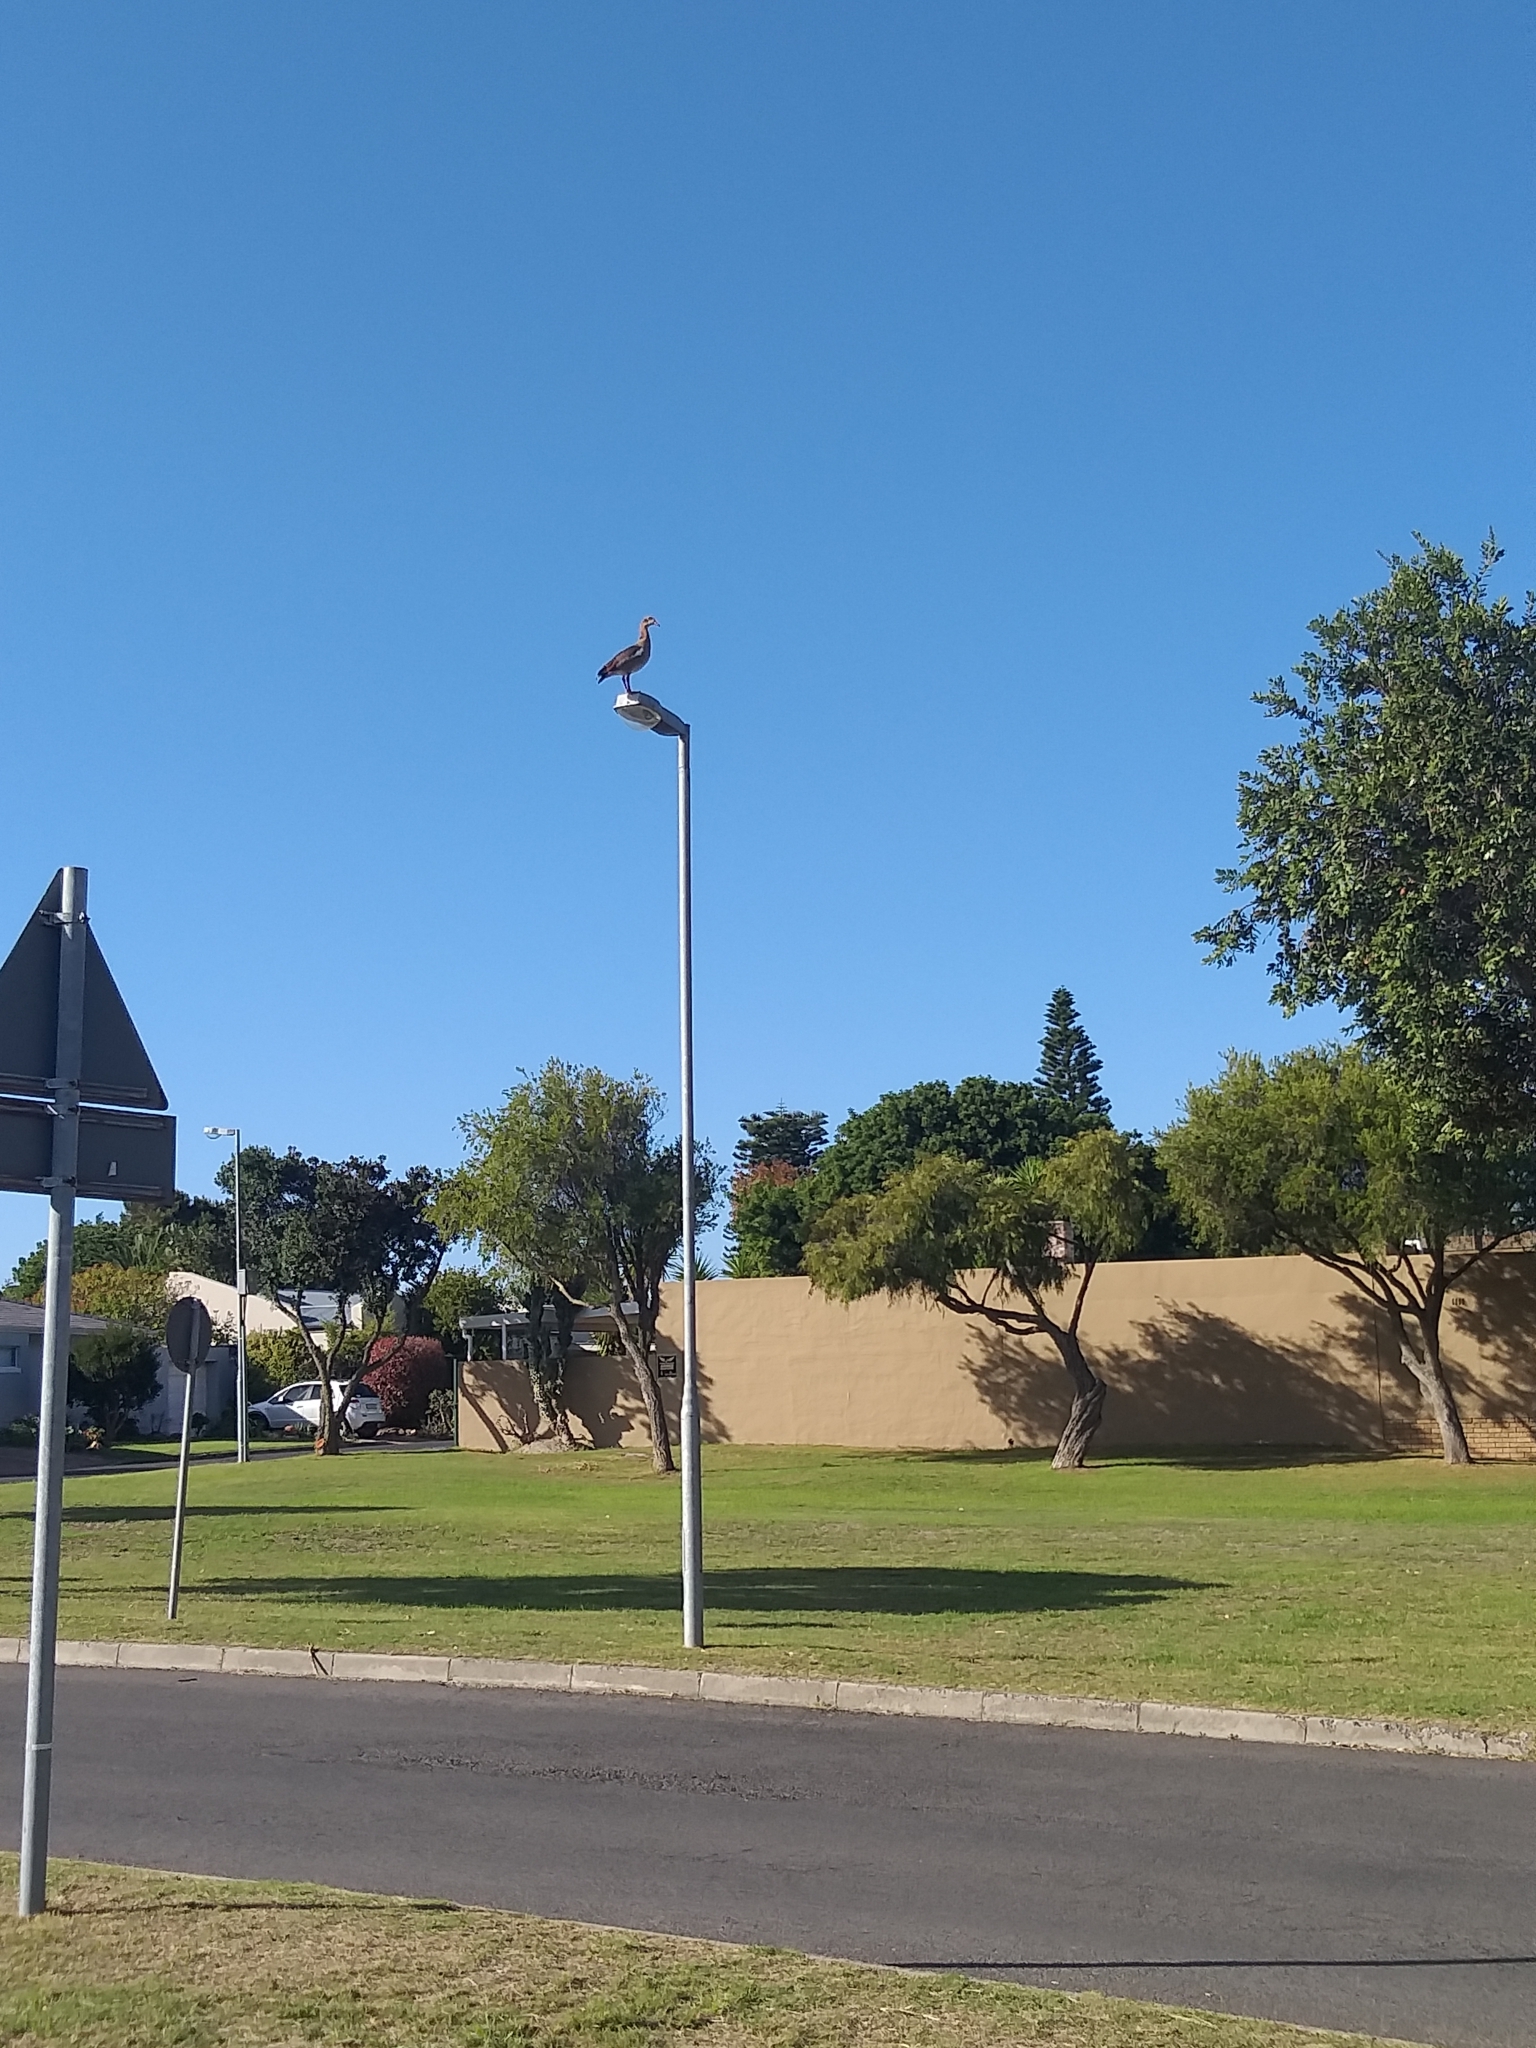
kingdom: Animalia
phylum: Chordata
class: Aves
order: Anseriformes
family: Anatidae
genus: Alopochen
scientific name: Alopochen aegyptiaca
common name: Egyptian goose
